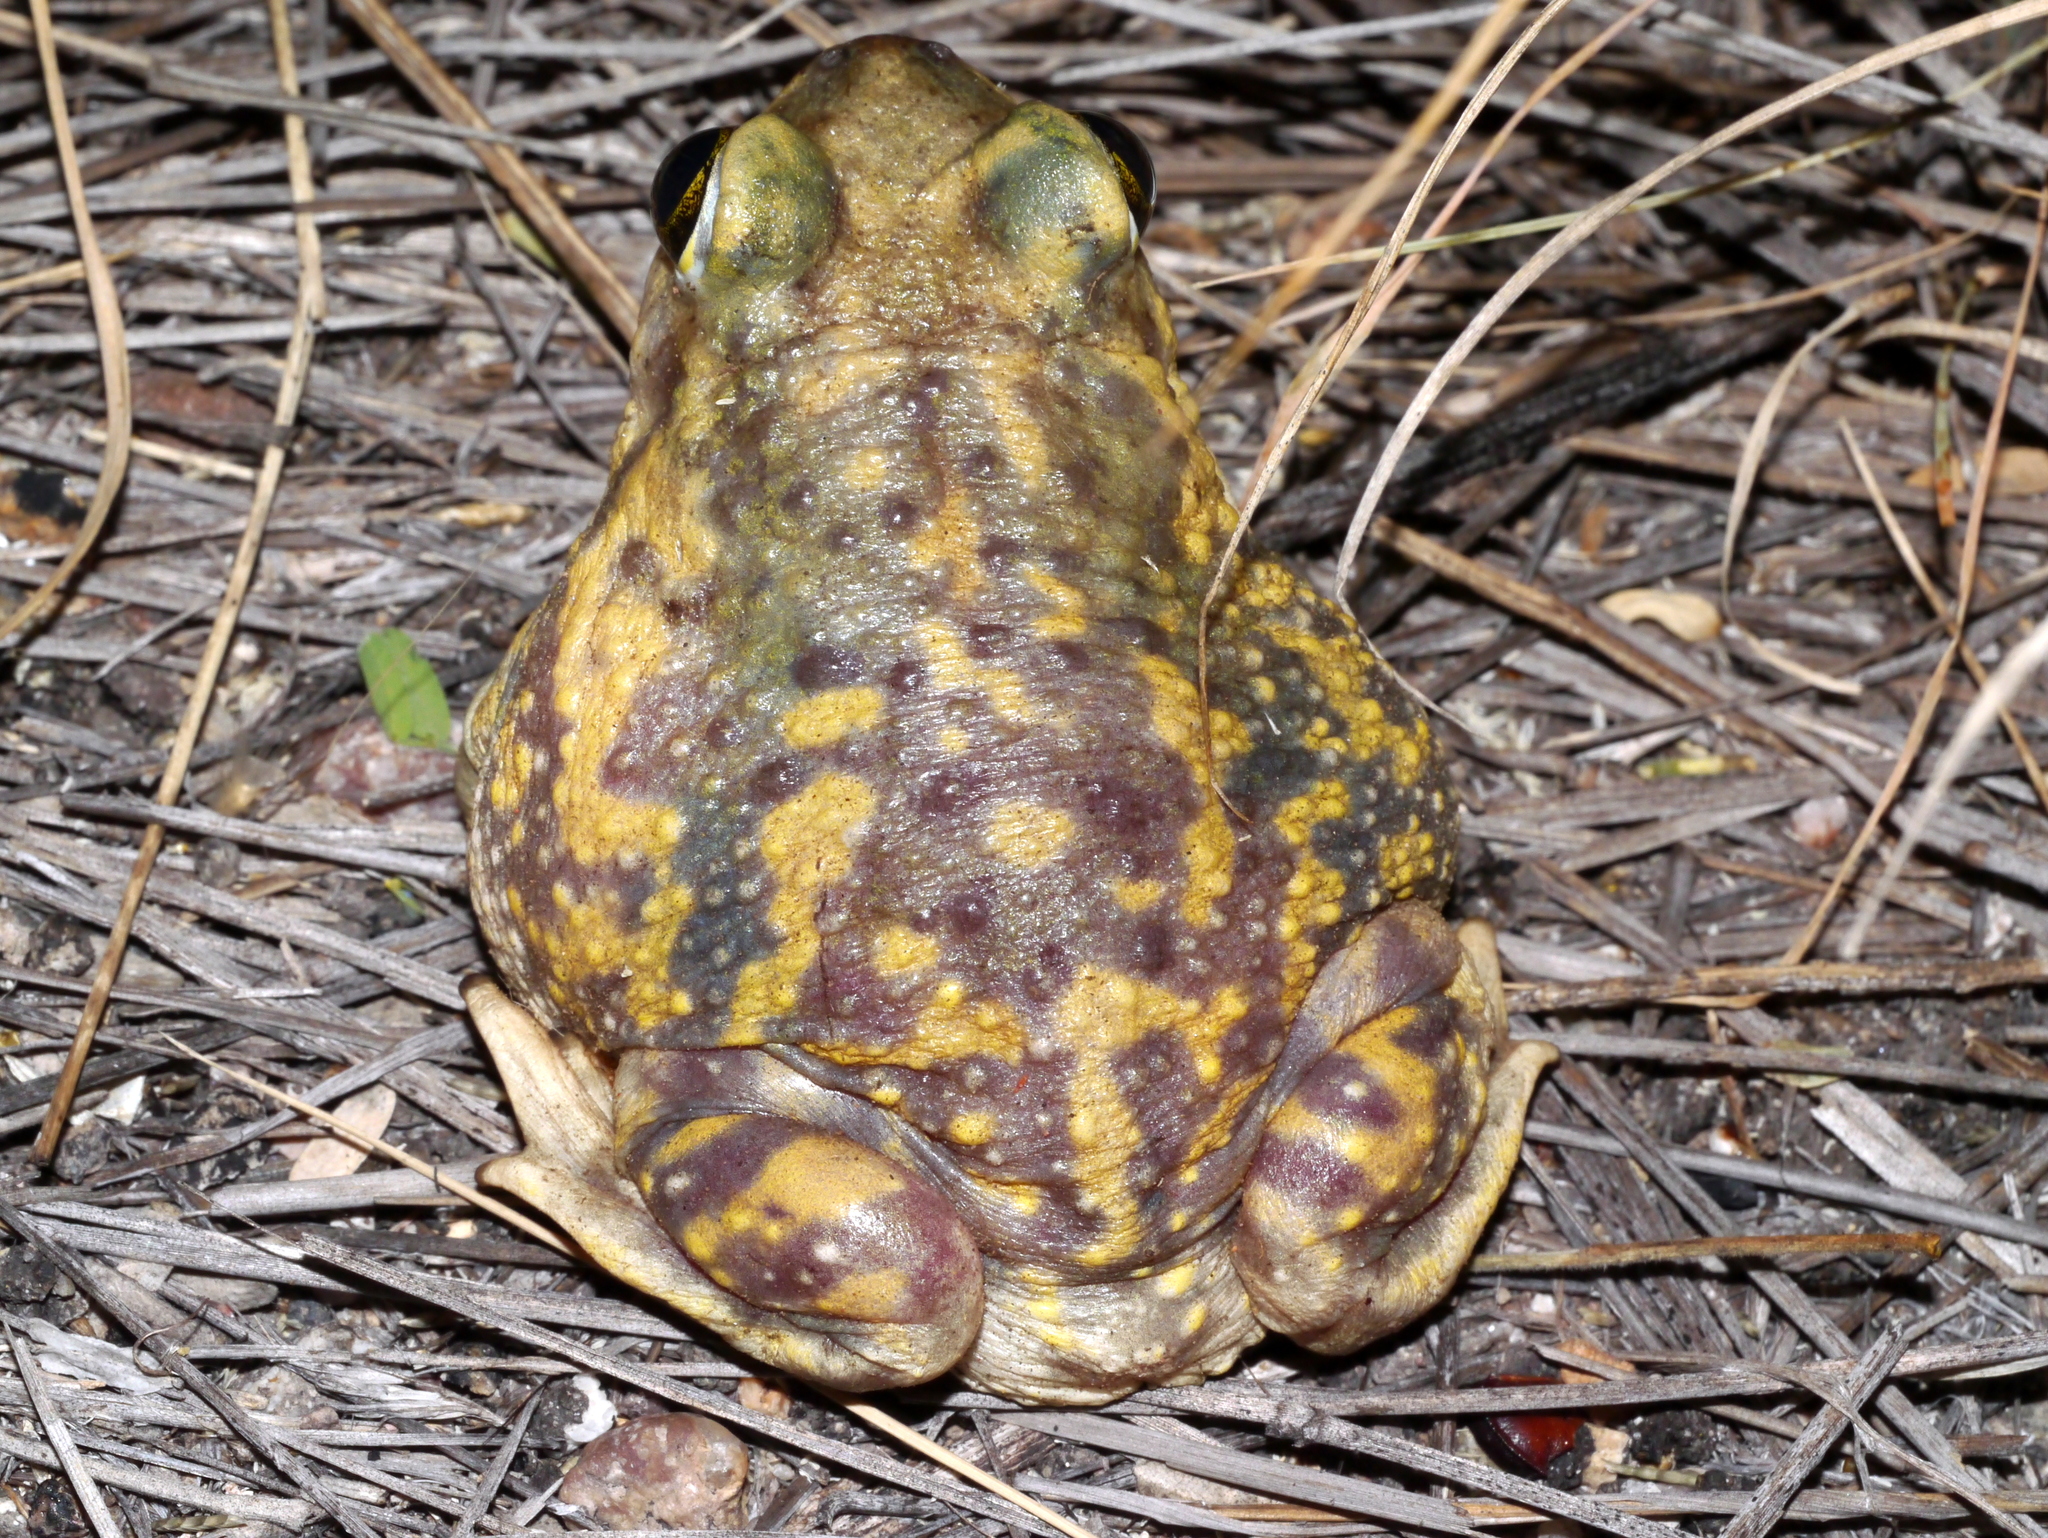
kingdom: Animalia
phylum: Chordata
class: Amphibia
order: Anura
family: Scaphiopodidae
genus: Scaphiopus
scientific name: Scaphiopus couchii
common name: Couch's spadefoot toad
